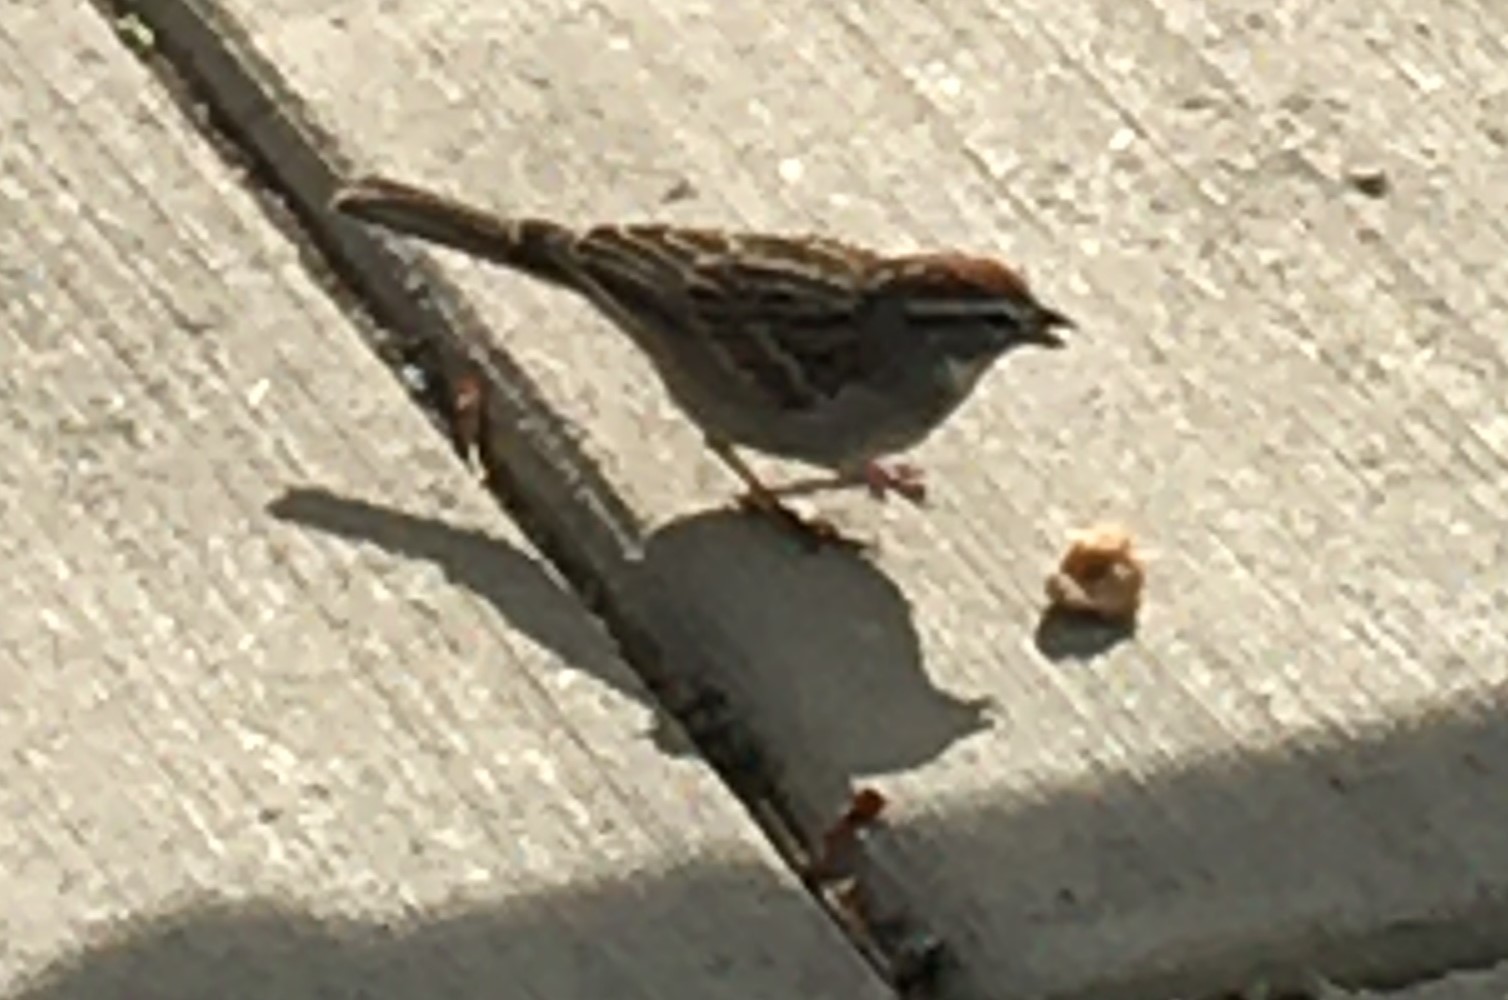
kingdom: Animalia
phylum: Chordata
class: Aves
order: Passeriformes
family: Passerellidae
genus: Spizella
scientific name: Spizella passerina
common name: Chipping sparrow
